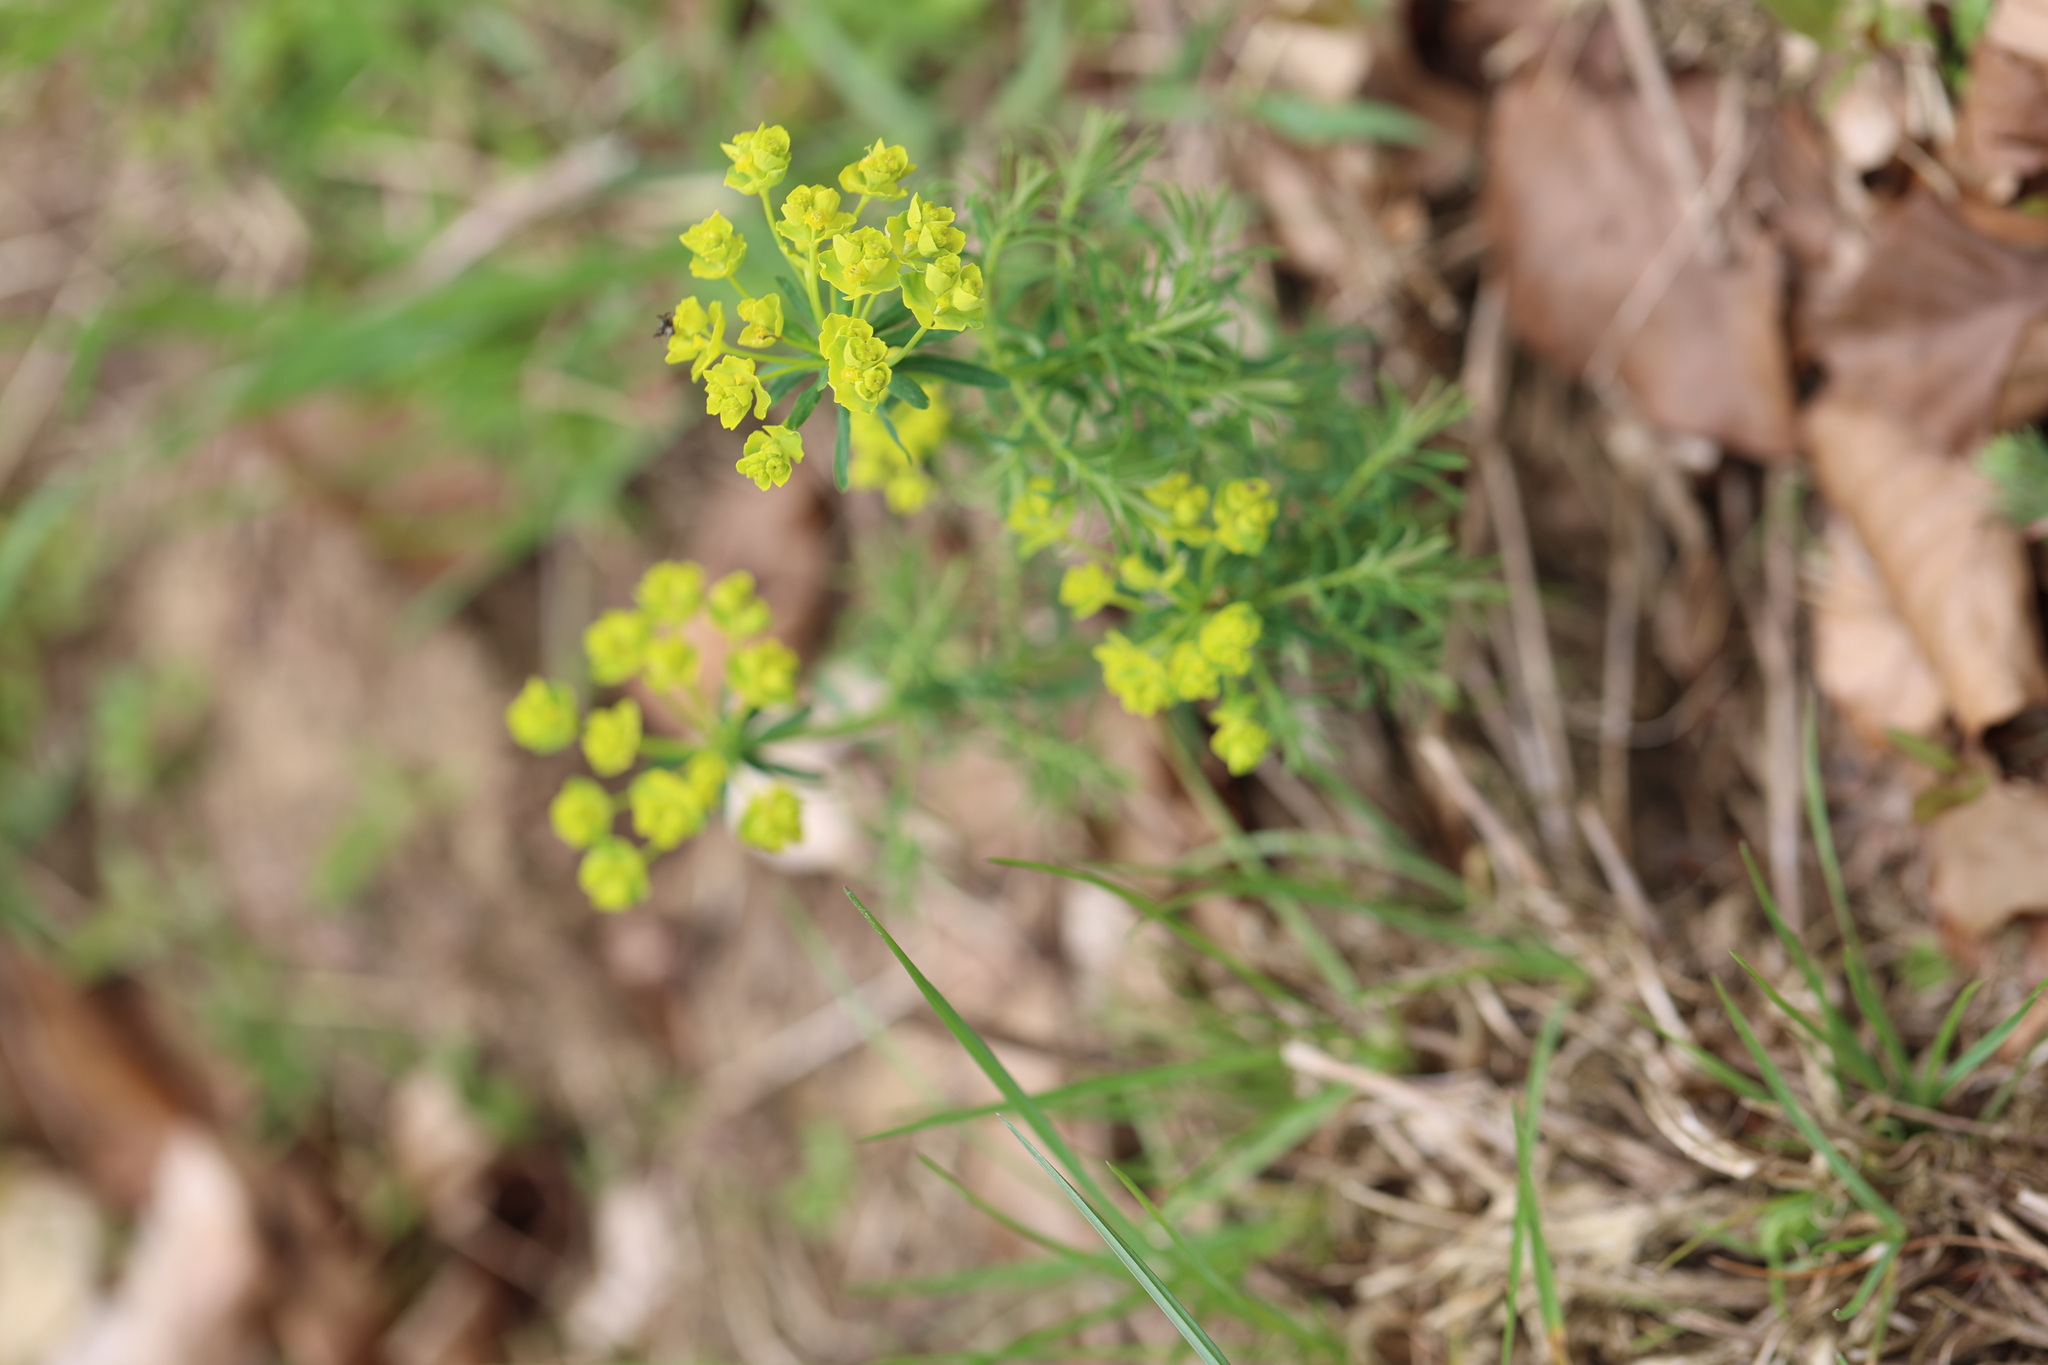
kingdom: Plantae
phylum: Tracheophyta
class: Magnoliopsida
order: Malpighiales
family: Euphorbiaceae
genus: Euphorbia
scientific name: Euphorbia cyparissias
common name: Cypress spurge
